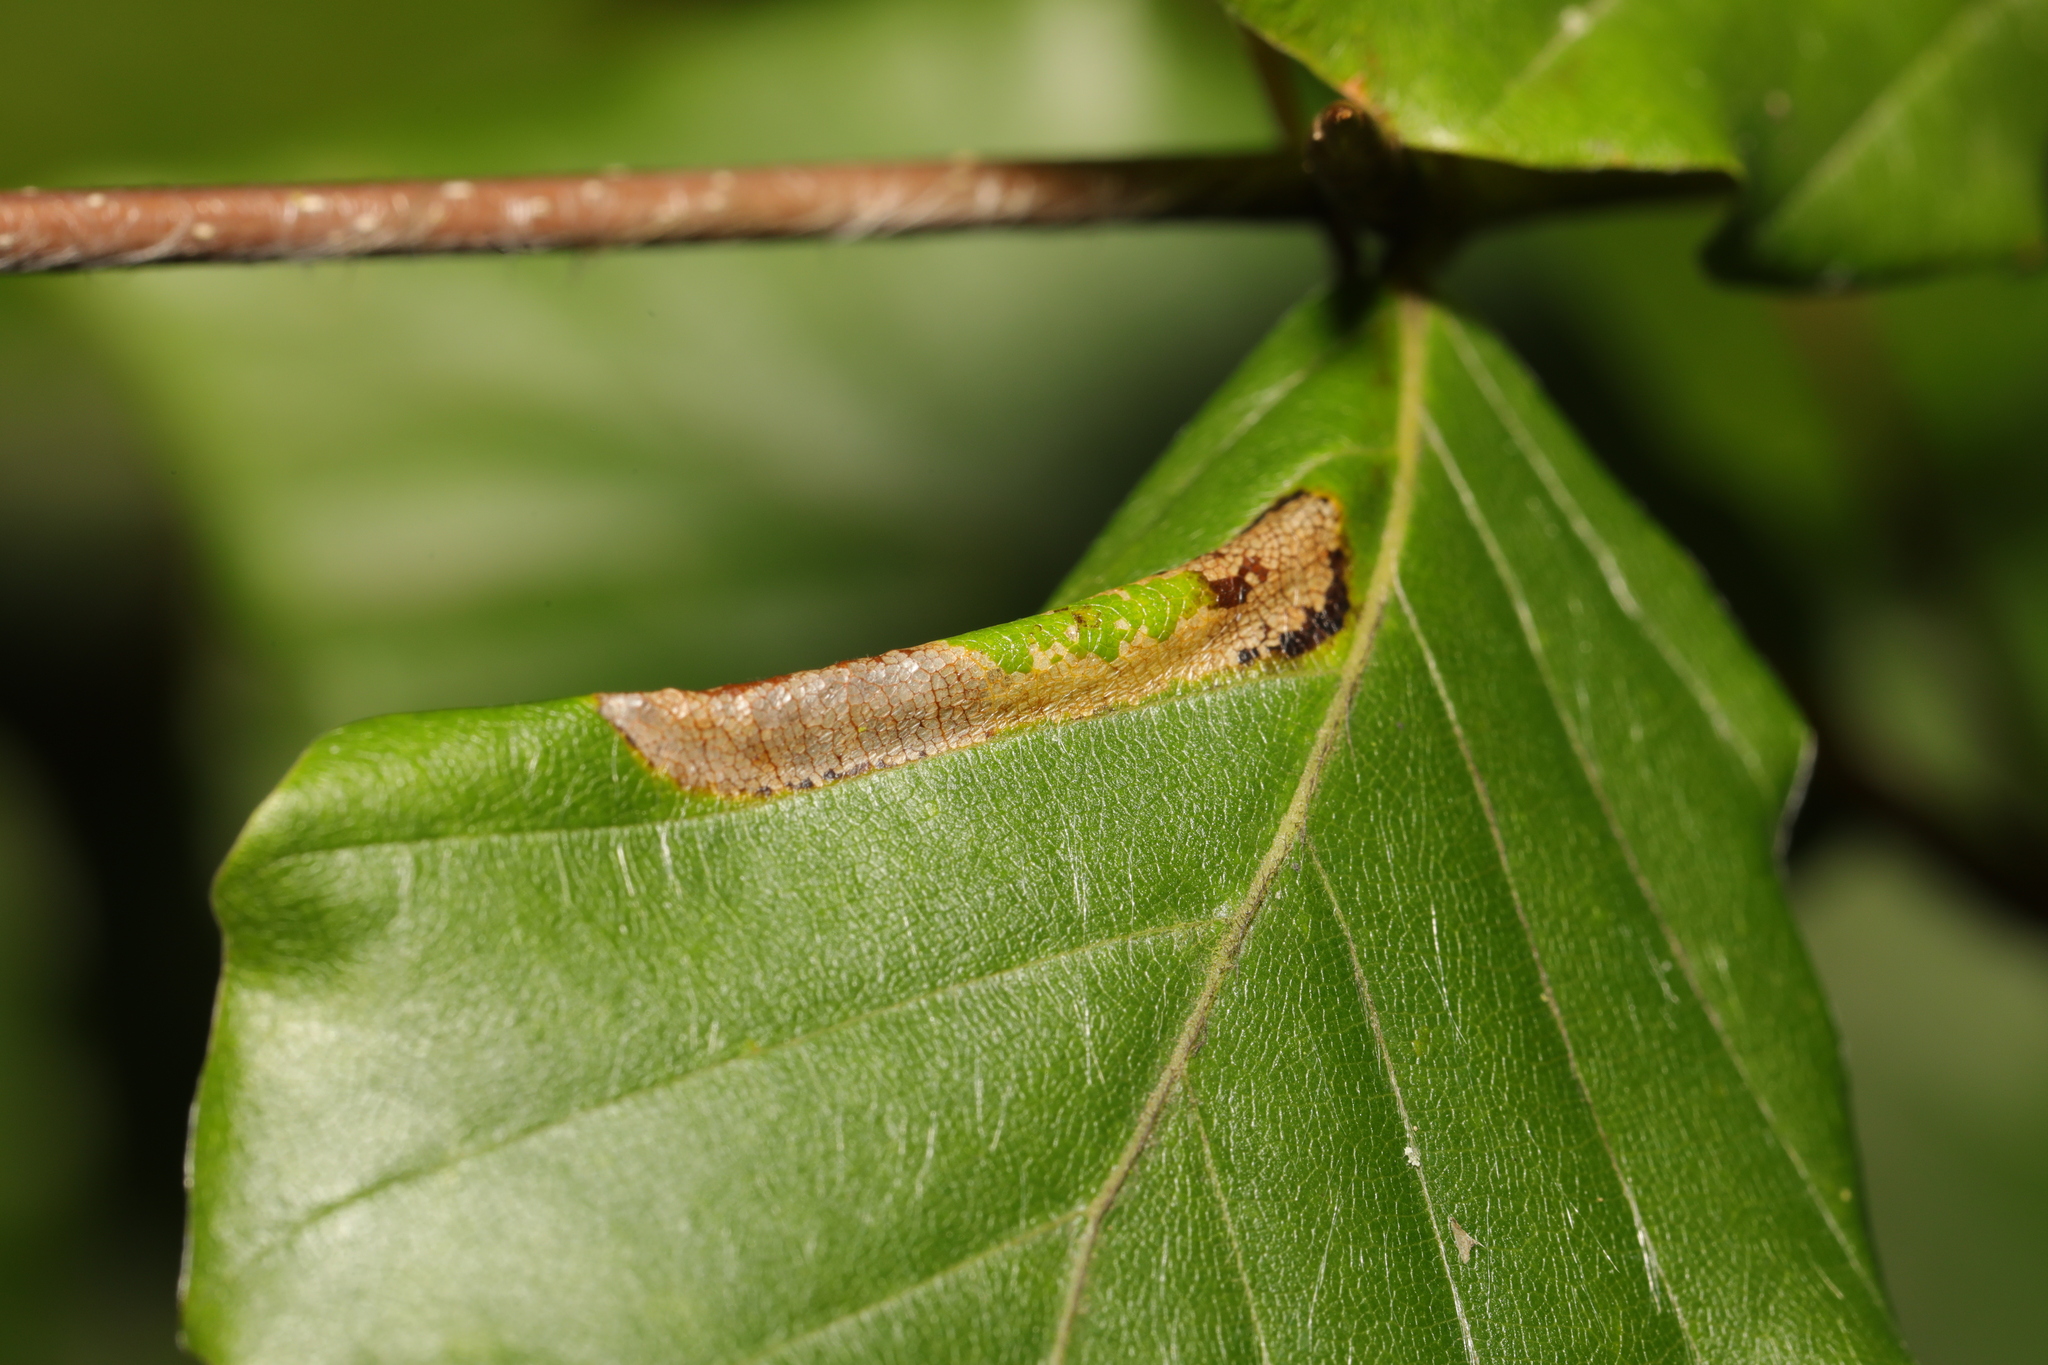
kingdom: Animalia
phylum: Arthropoda
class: Insecta
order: Lepidoptera
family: Gracillariidae
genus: Phyllonorycter
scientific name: Phyllonorycter maestingella
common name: Beech midget
